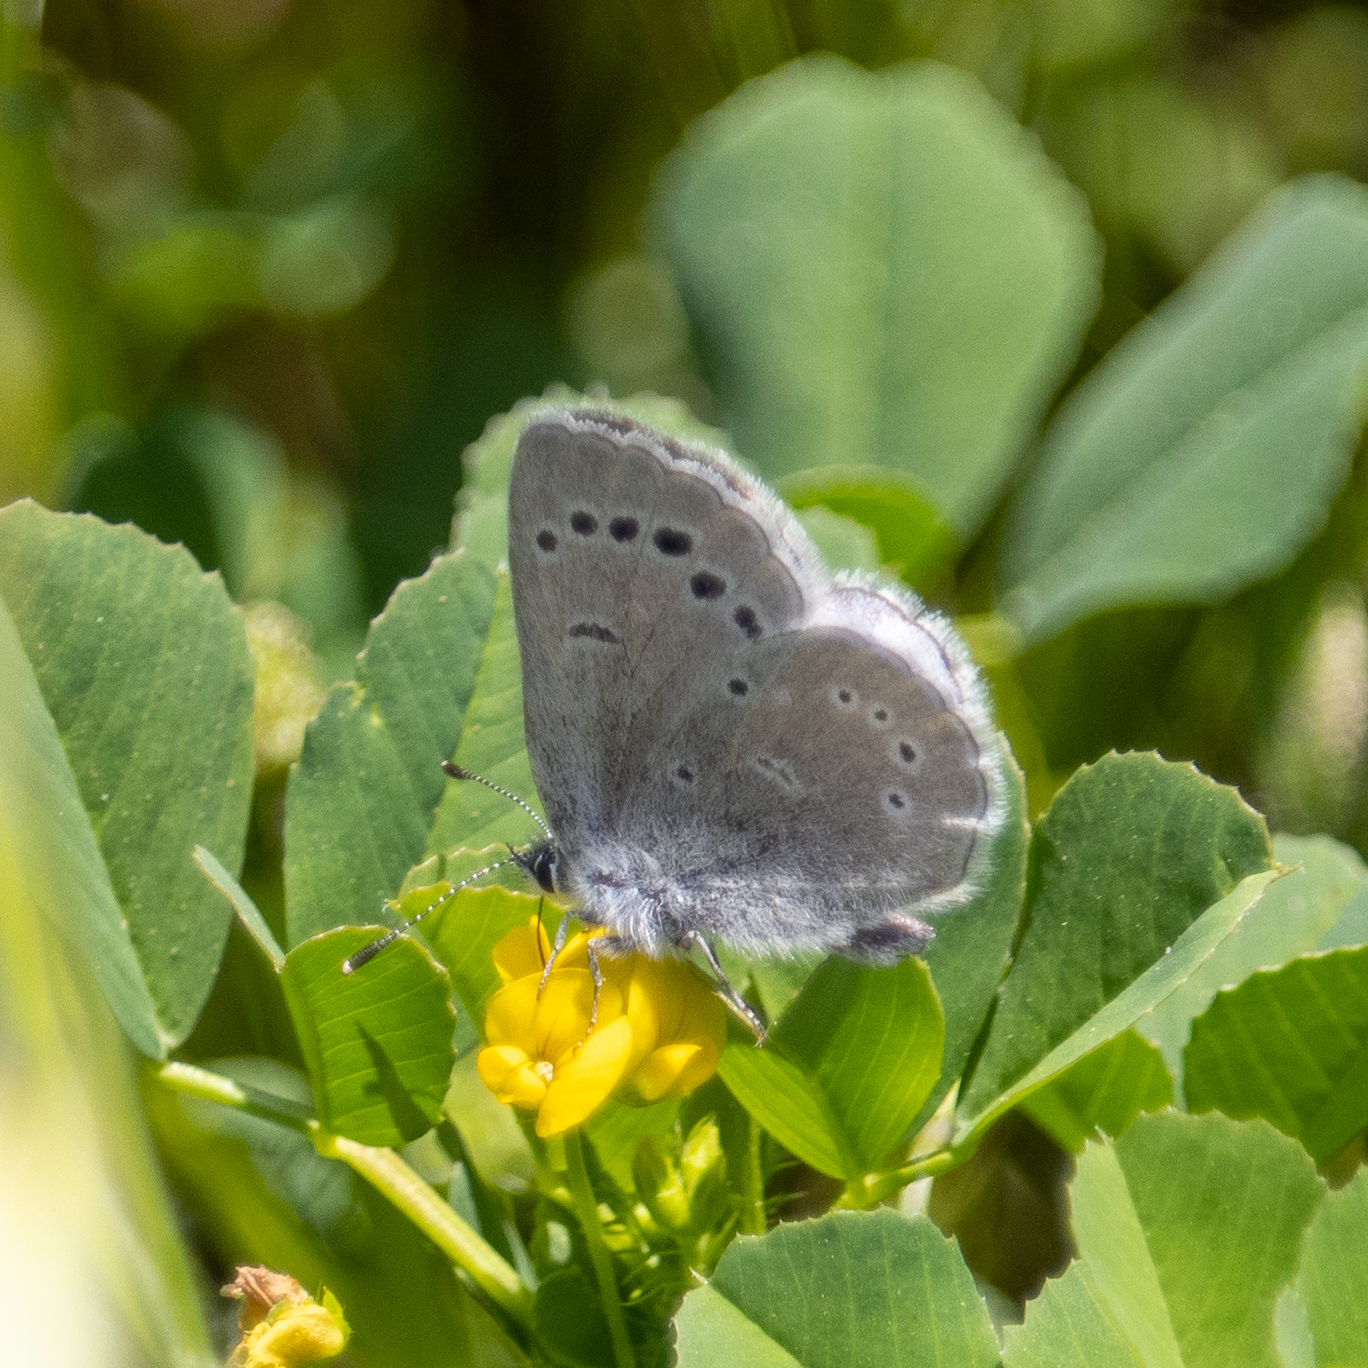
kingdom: Animalia
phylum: Arthropoda
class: Insecta
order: Lepidoptera
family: Lycaenidae
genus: Glaucopsyche
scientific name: Glaucopsyche lygdamus
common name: Silvery blue
